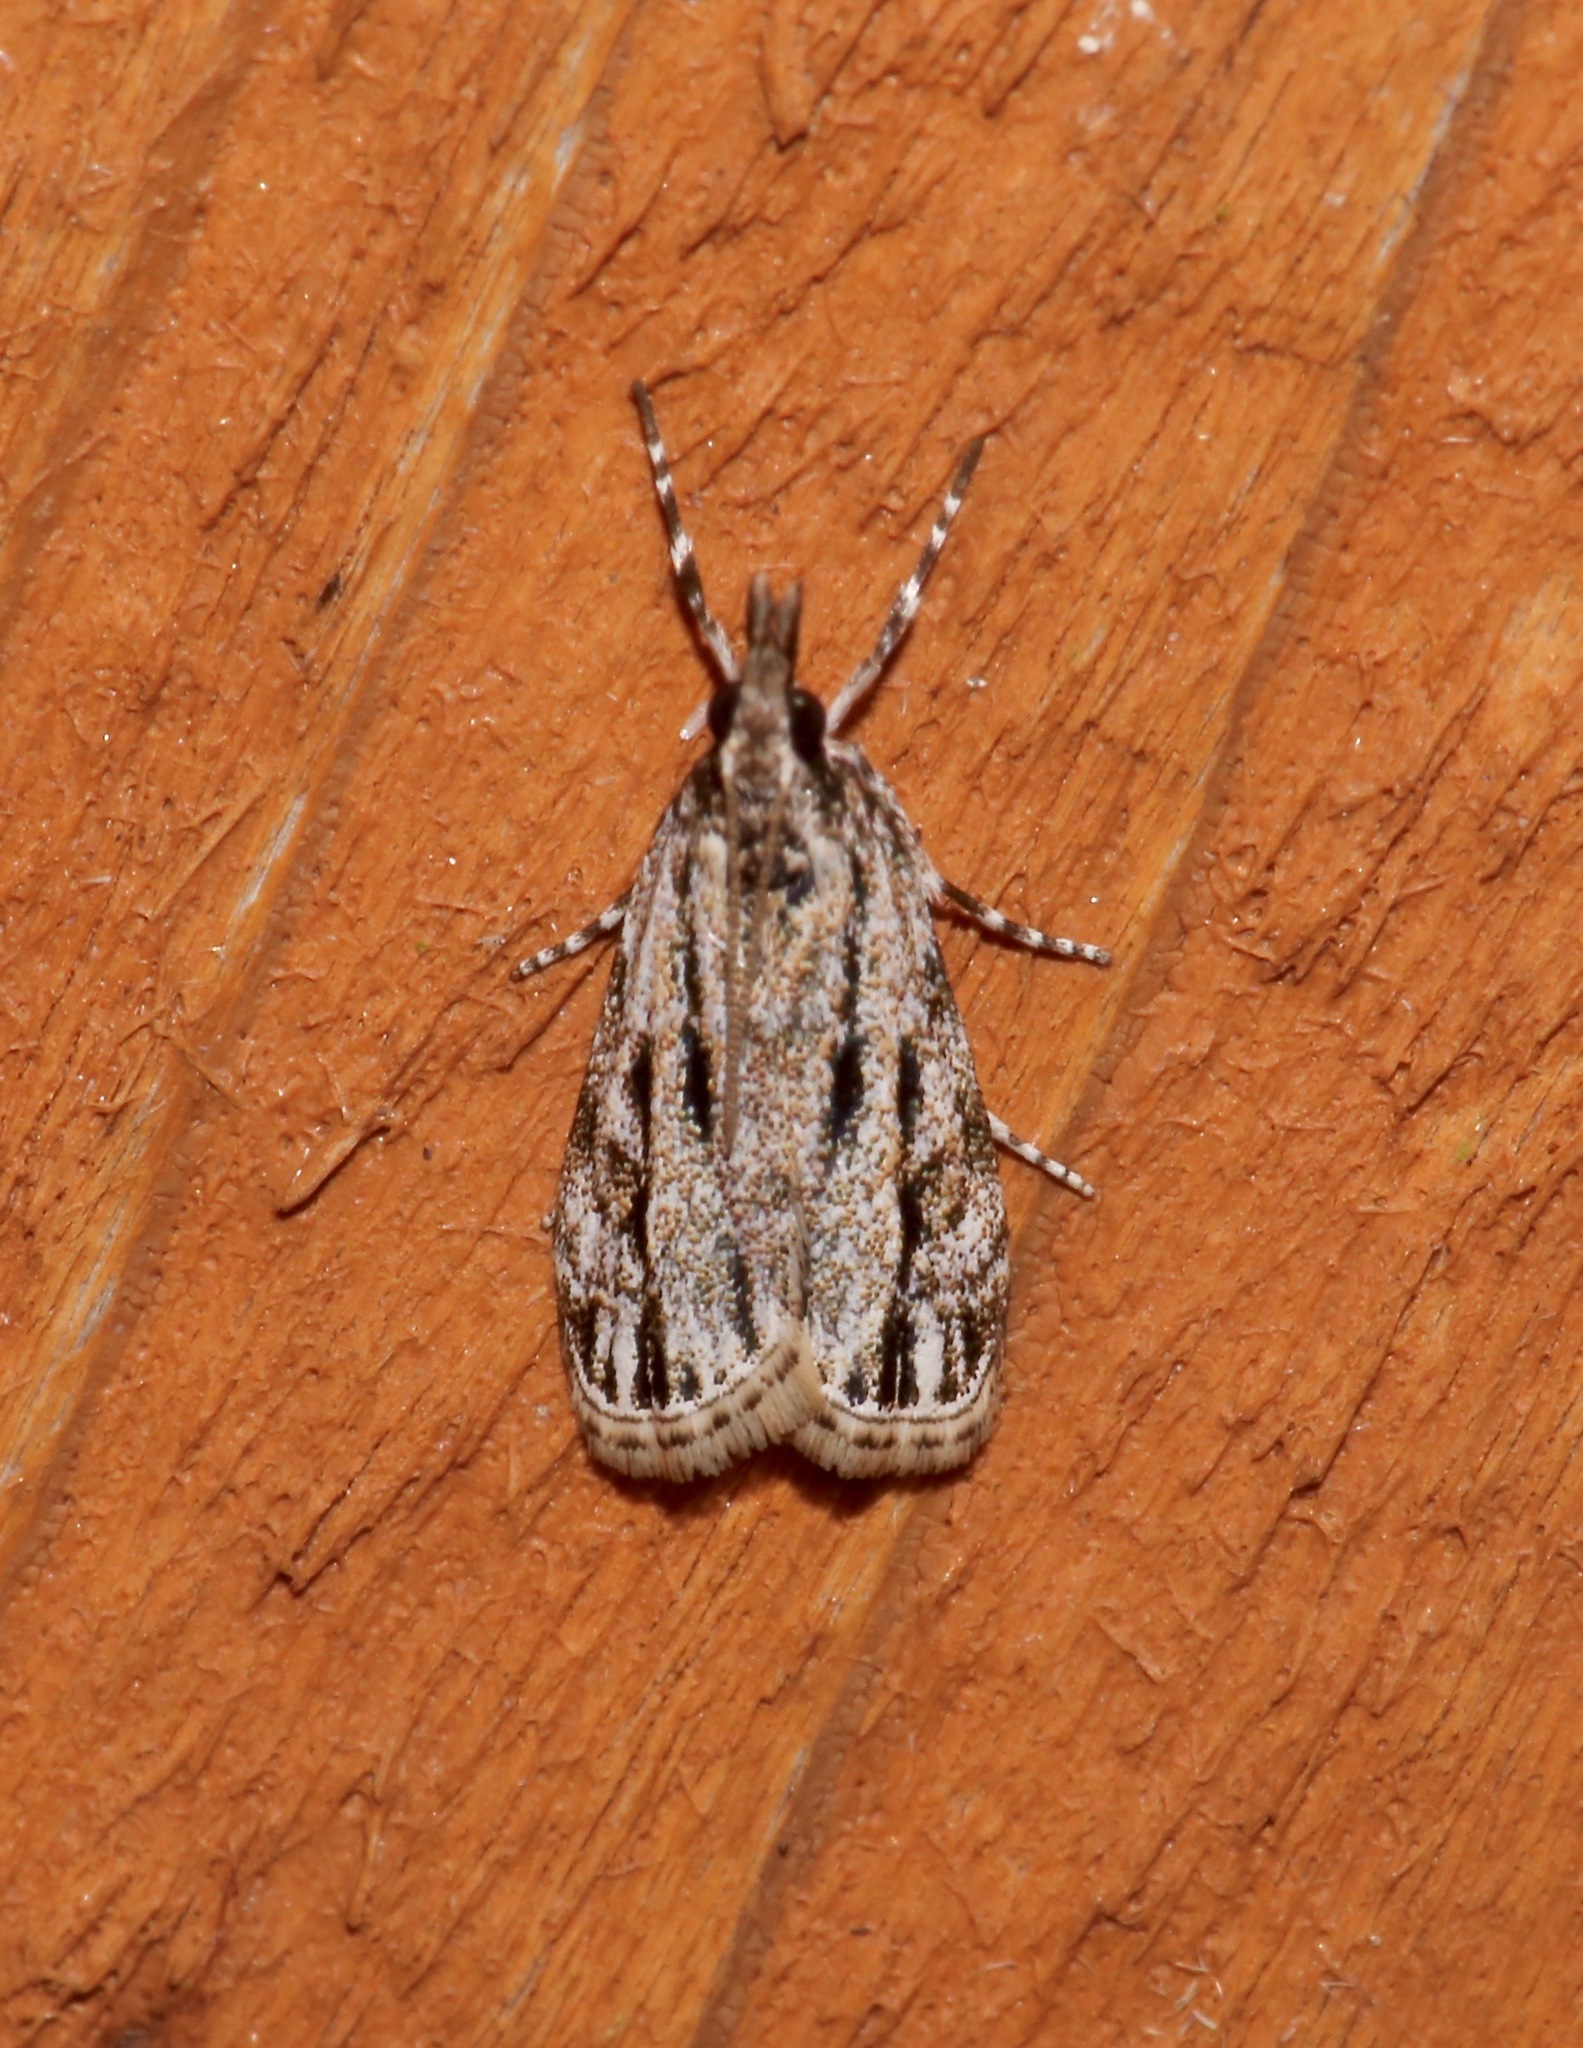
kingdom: Animalia
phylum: Arthropoda
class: Insecta
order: Lepidoptera
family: Crambidae
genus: Eudonia
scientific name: Eudonia strigalis
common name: Striped eudonia moth
